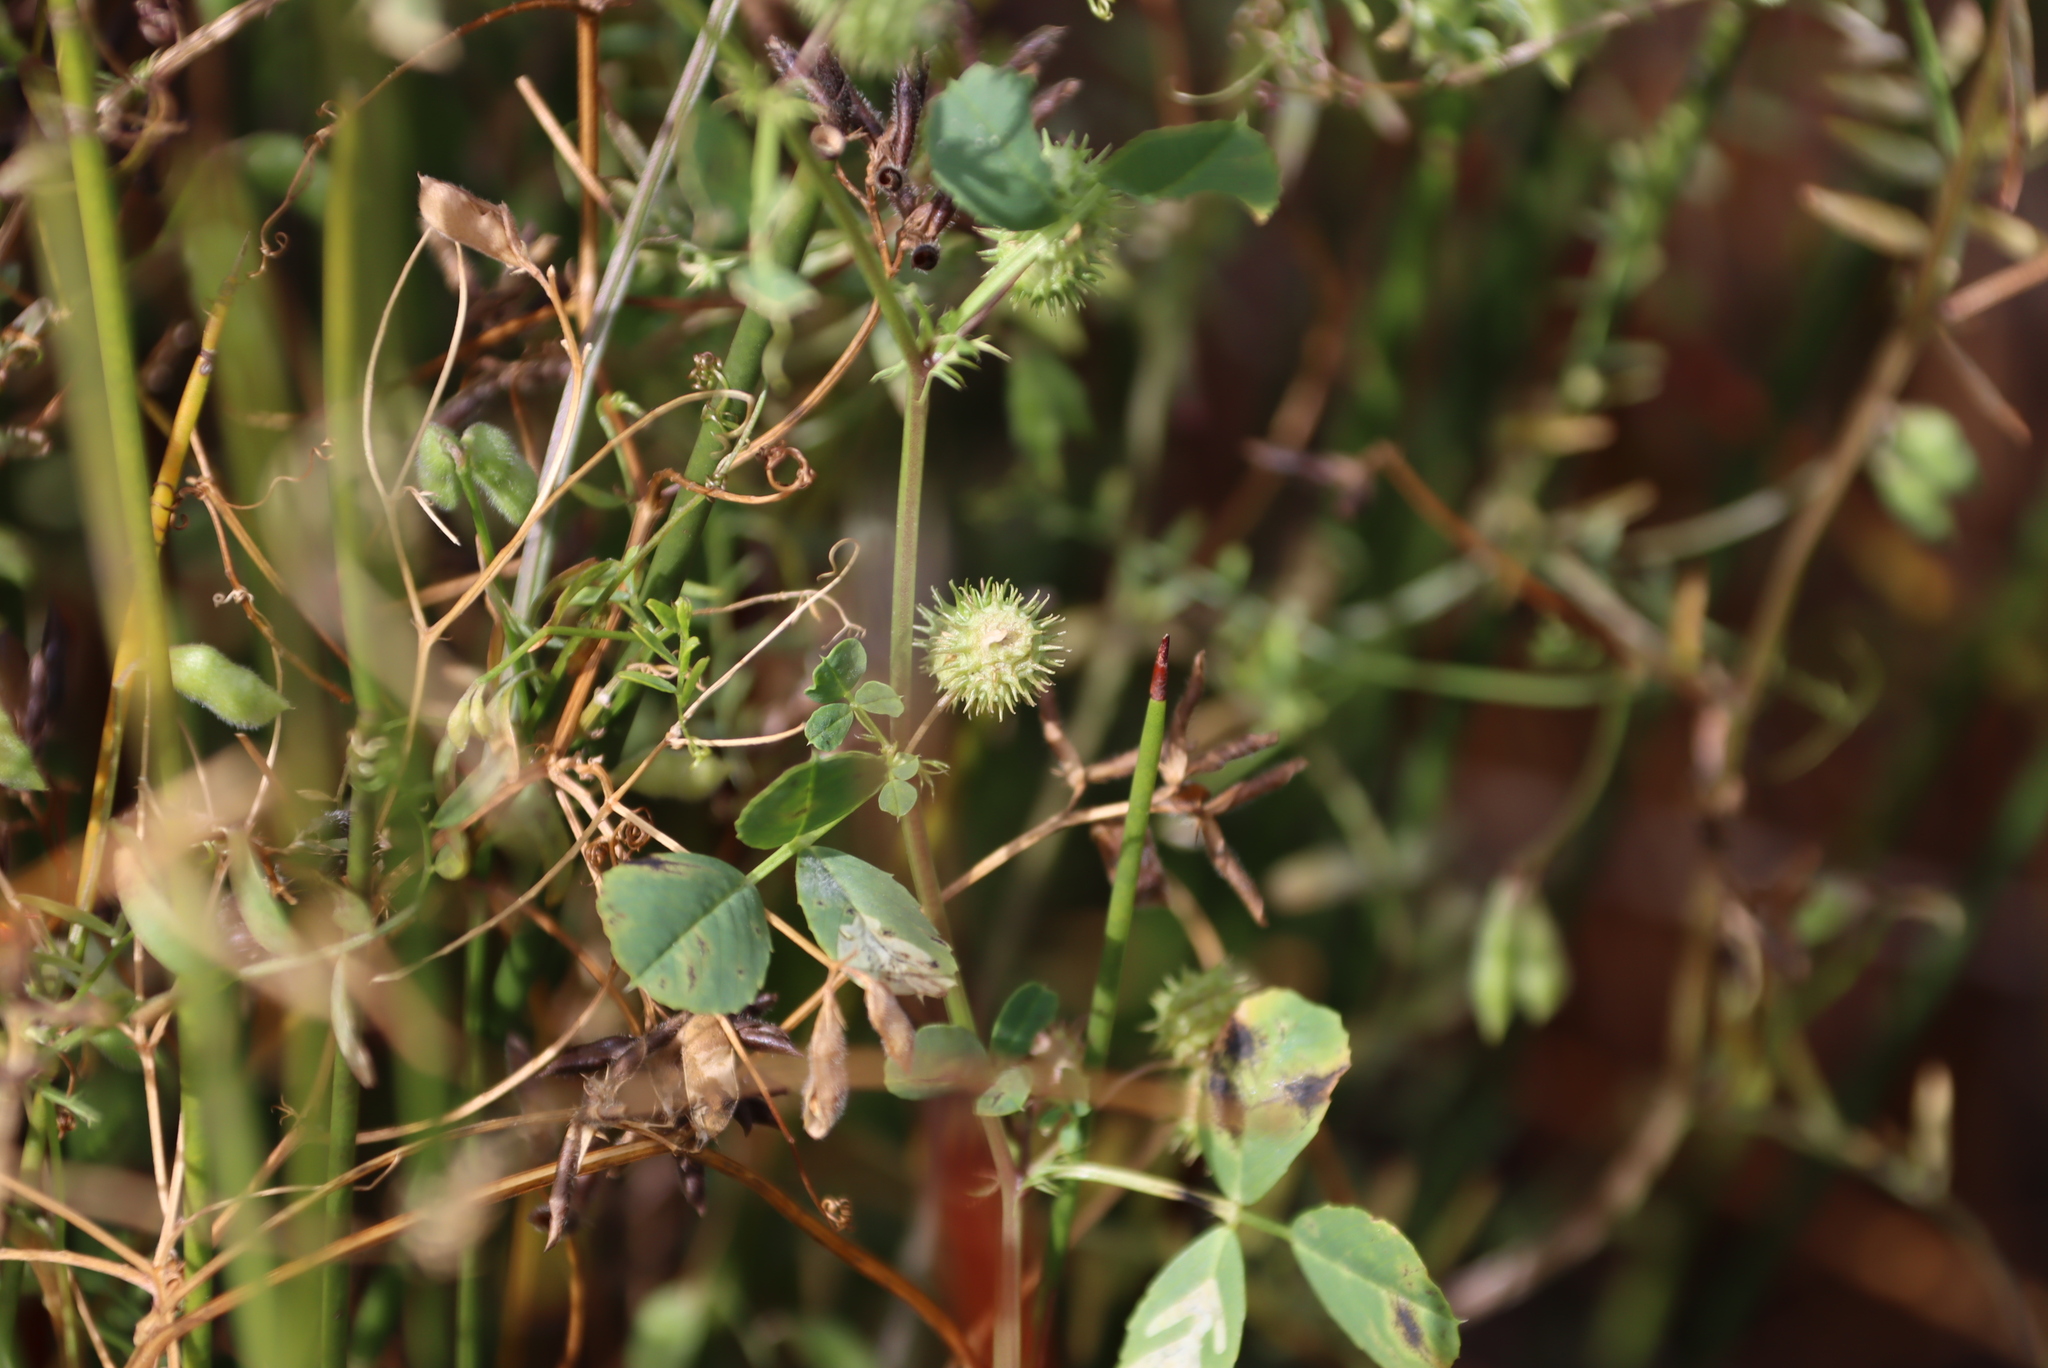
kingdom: Plantae
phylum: Tracheophyta
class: Magnoliopsida
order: Fabales
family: Fabaceae
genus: Medicago
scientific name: Medicago polymorpha
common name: Burclover
